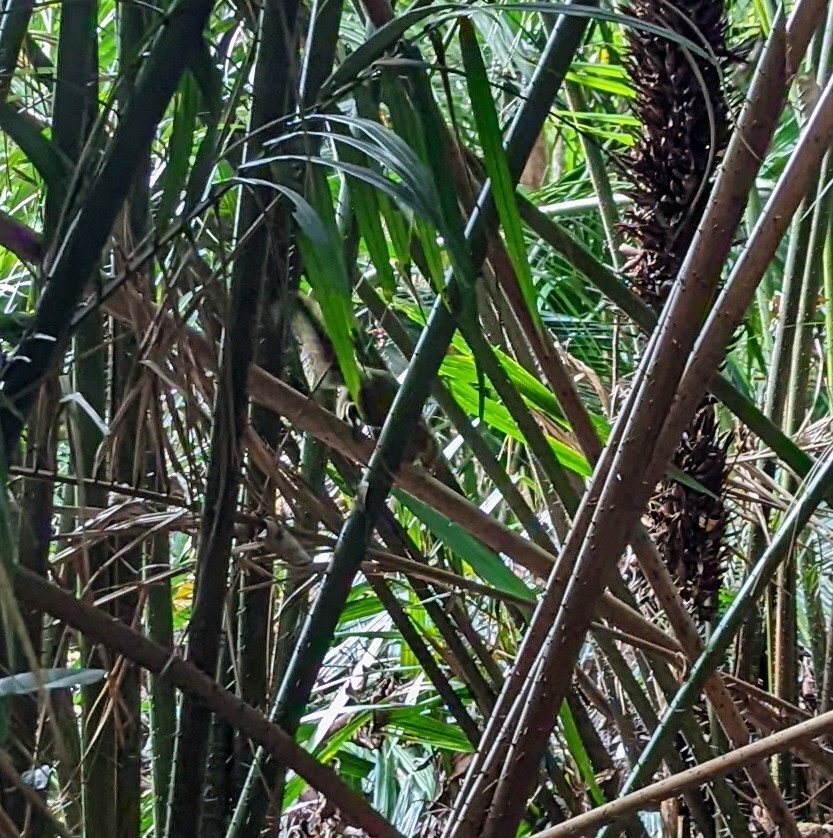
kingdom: Animalia
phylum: Chordata
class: Mammalia
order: Rodentia
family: Sciuridae
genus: Callosciurus
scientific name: Callosciurus notatus
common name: Plantain squirrel
